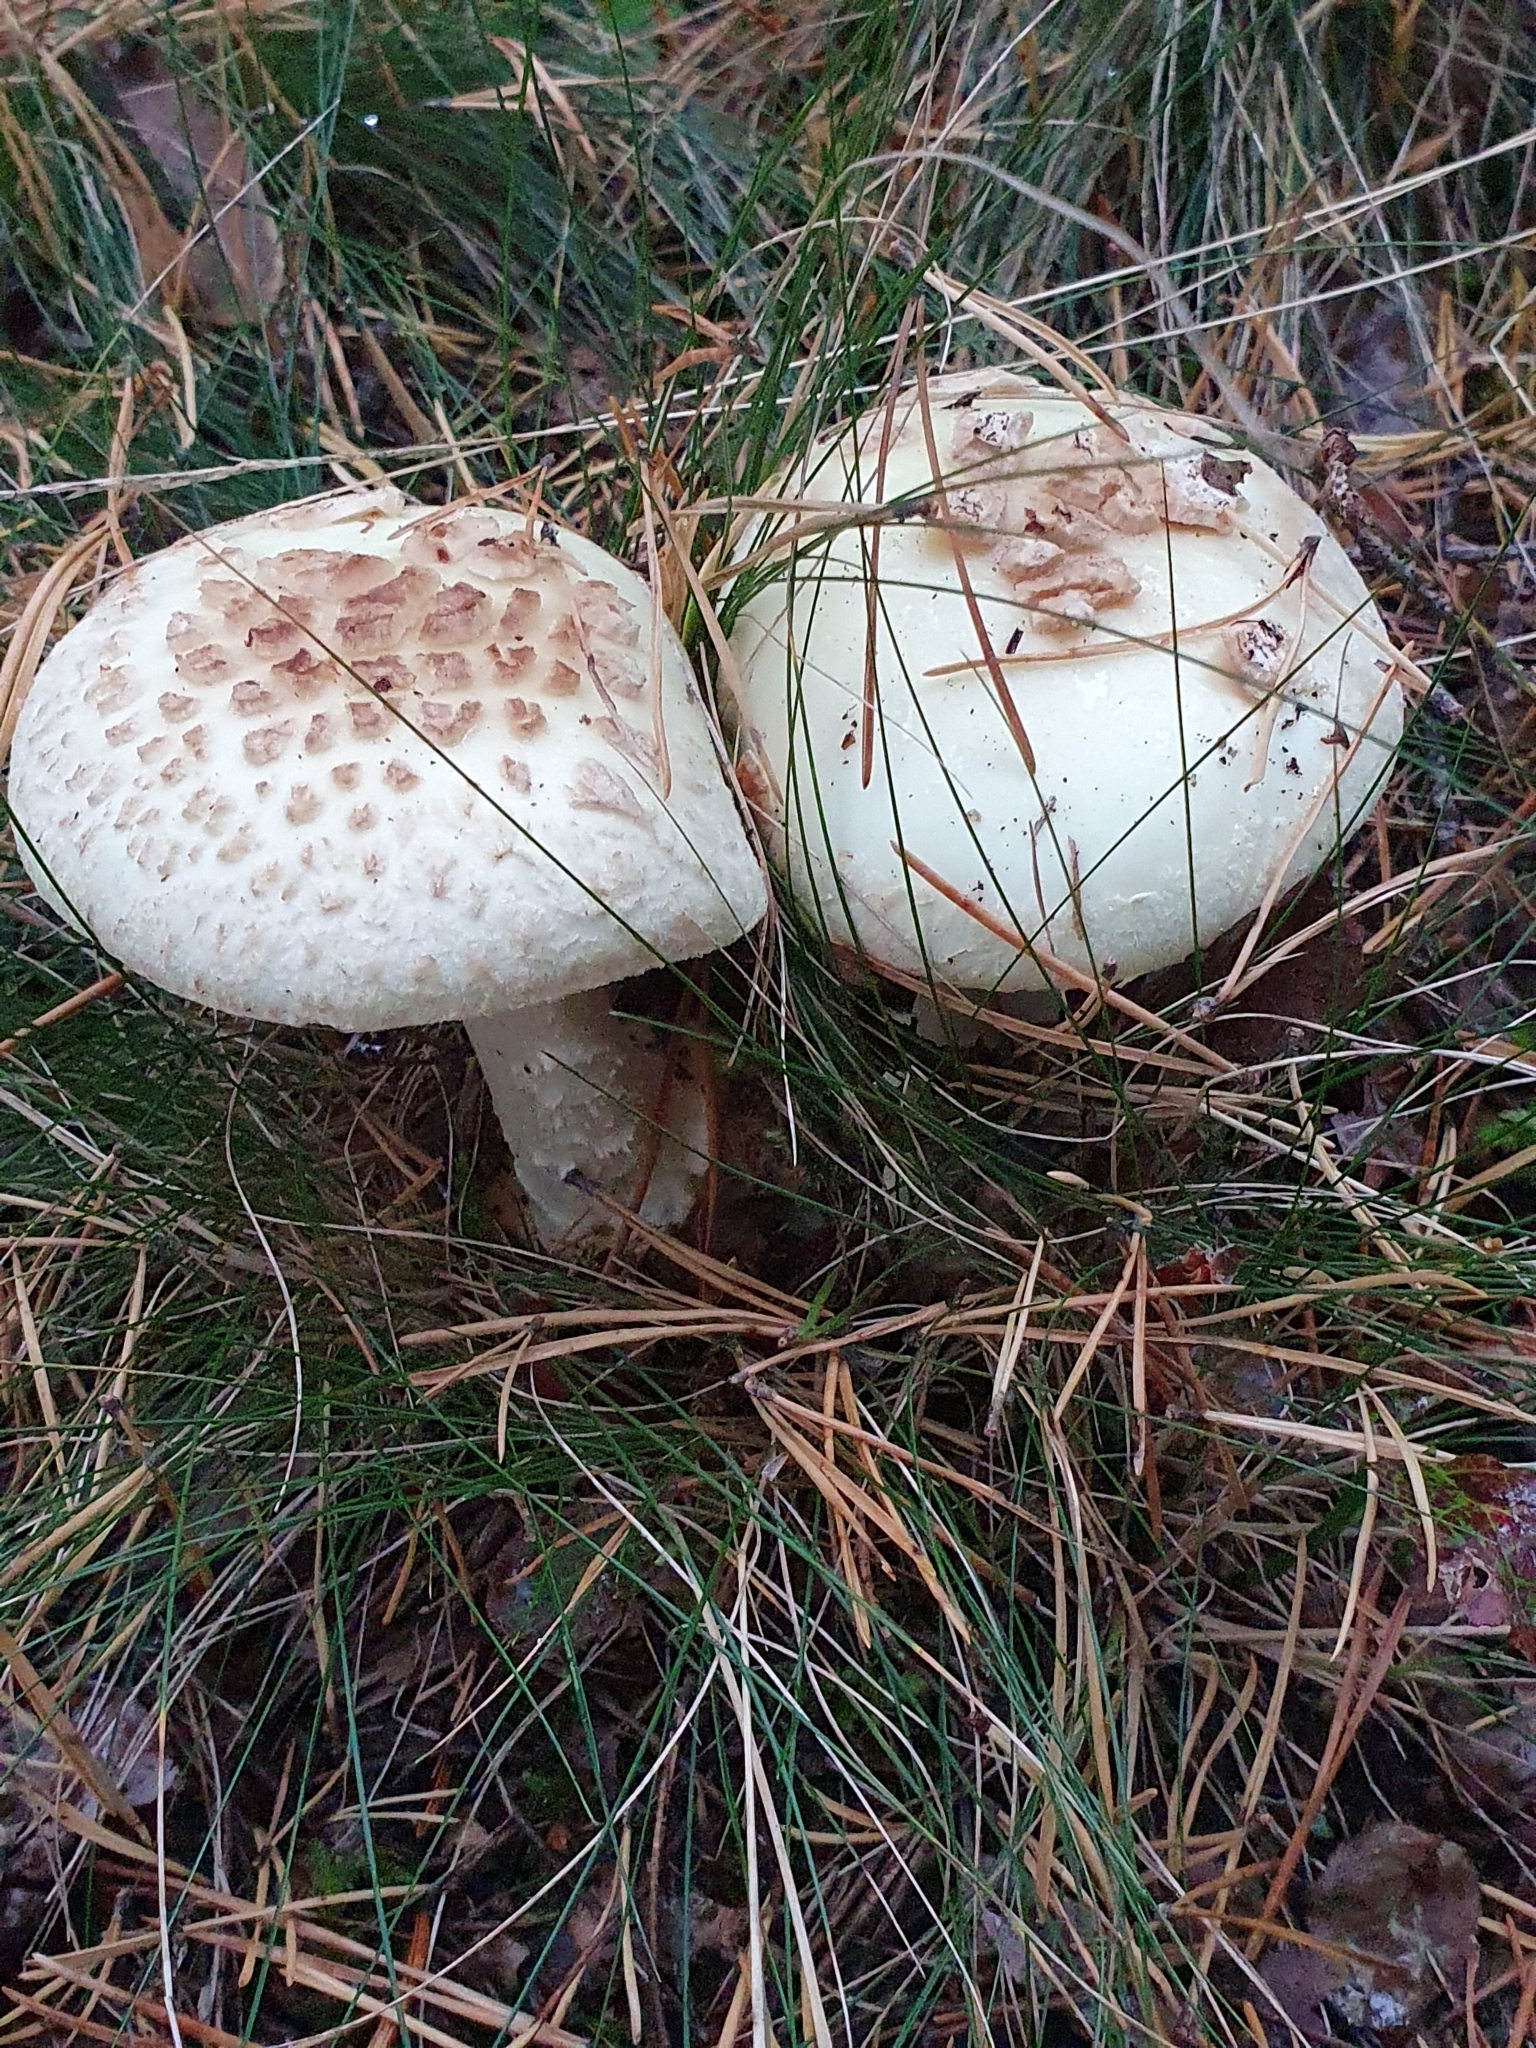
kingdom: Fungi
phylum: Basidiomycota
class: Agaricomycetes
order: Agaricales
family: Amanitaceae
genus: Amanita
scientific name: Amanita citrina
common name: False death-cap
